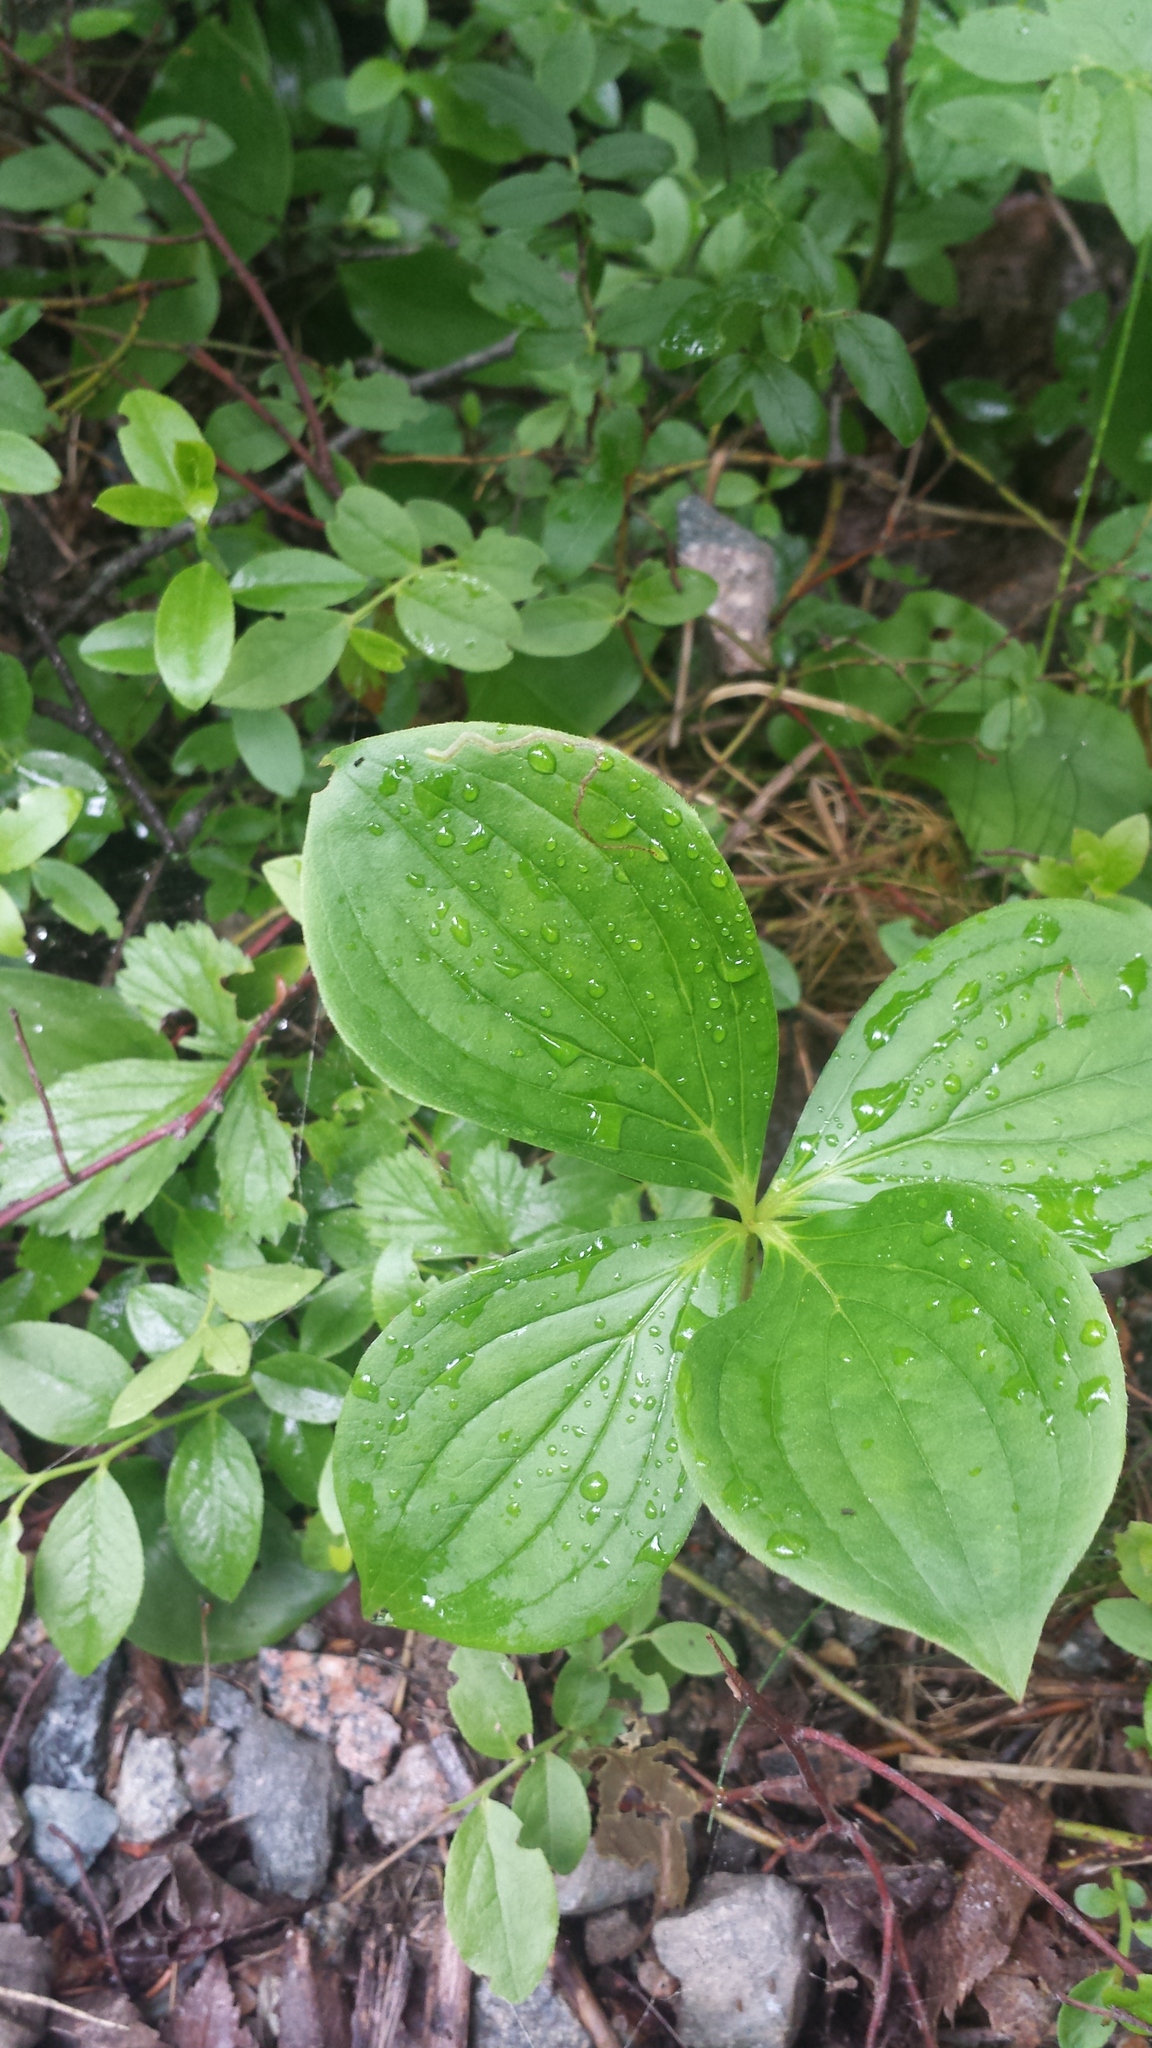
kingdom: Plantae
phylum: Tracheophyta
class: Magnoliopsida
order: Cornales
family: Cornaceae
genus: Cornus
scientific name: Cornus canadensis
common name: Creeping dogwood
